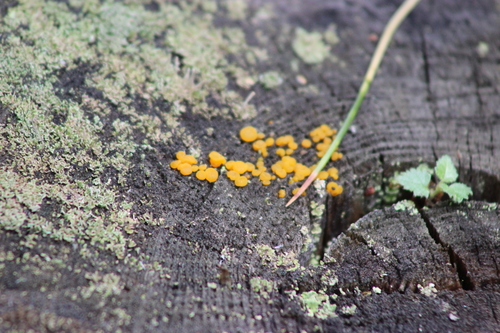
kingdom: Fungi
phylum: Basidiomycota
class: Dacrymycetes
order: Dacrymycetales
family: Dacrymycetaceae
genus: Dacrymyces
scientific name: Dacrymyces
